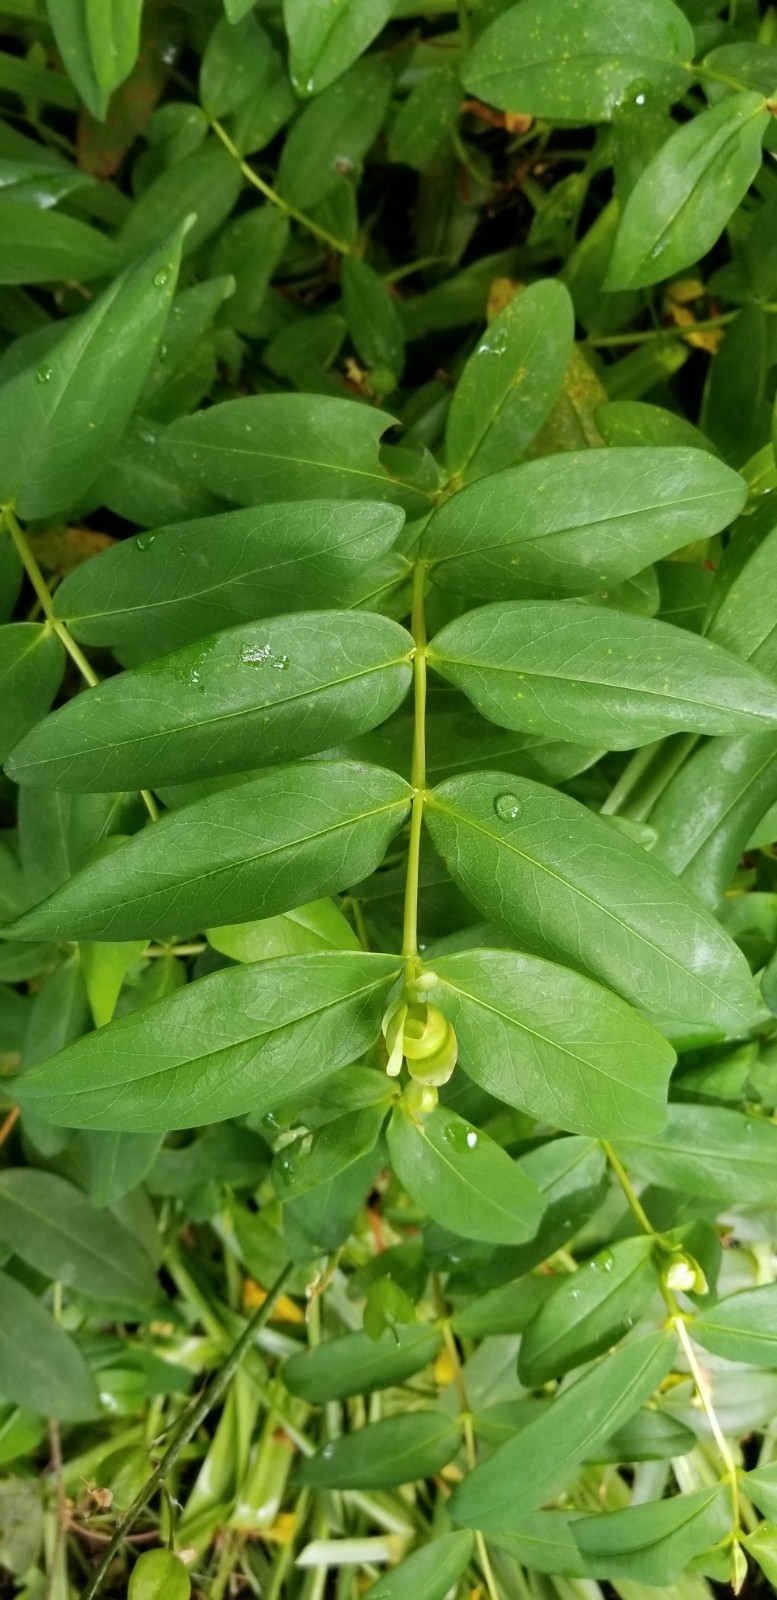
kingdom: Plantae
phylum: Tracheophyta
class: Magnoliopsida
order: Malpighiales
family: Hypericaceae
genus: Hypericum
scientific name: Hypericum calycinum
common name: Rose-of-sharon
